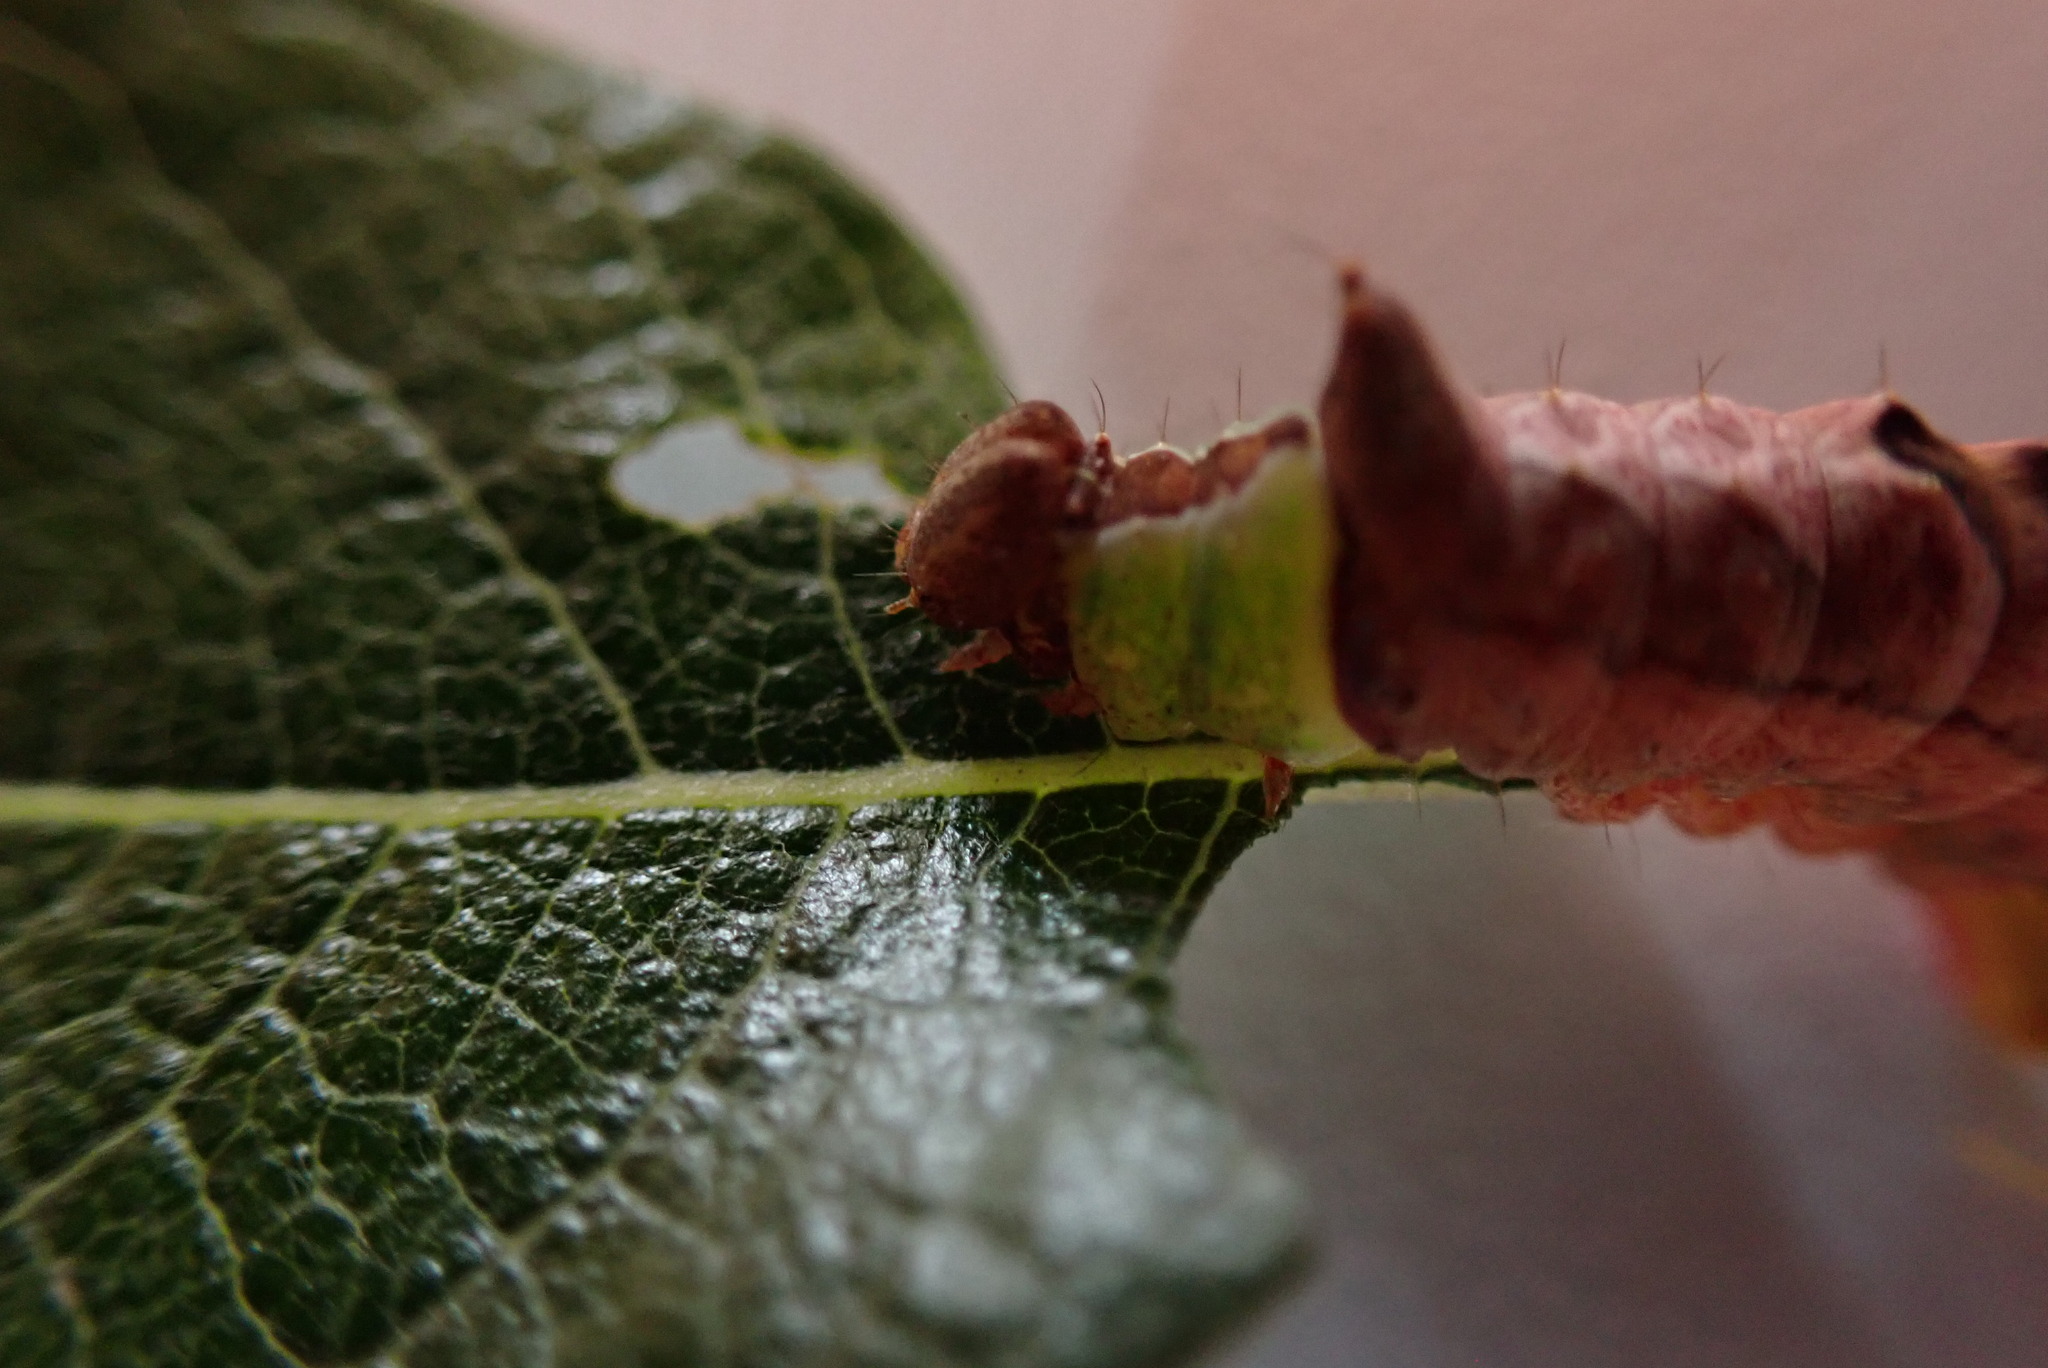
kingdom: Animalia
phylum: Arthropoda
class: Insecta
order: Lepidoptera
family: Notodontidae
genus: Schizura
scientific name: Schizura
